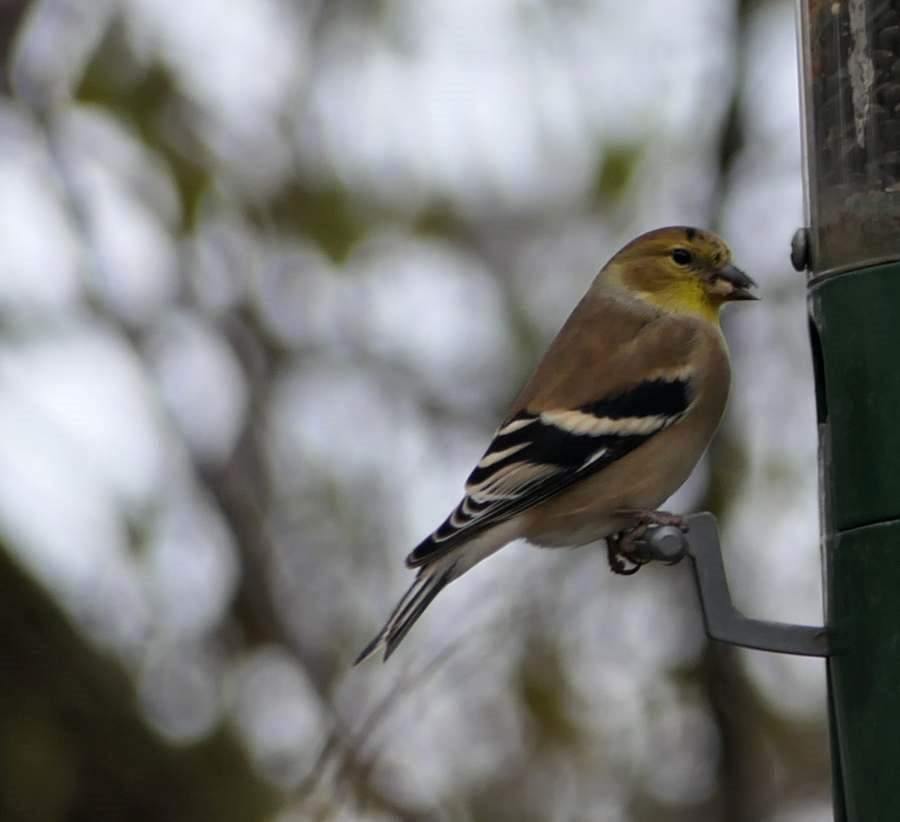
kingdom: Animalia
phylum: Chordata
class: Aves
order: Passeriformes
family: Fringillidae
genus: Spinus
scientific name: Spinus tristis
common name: American goldfinch
